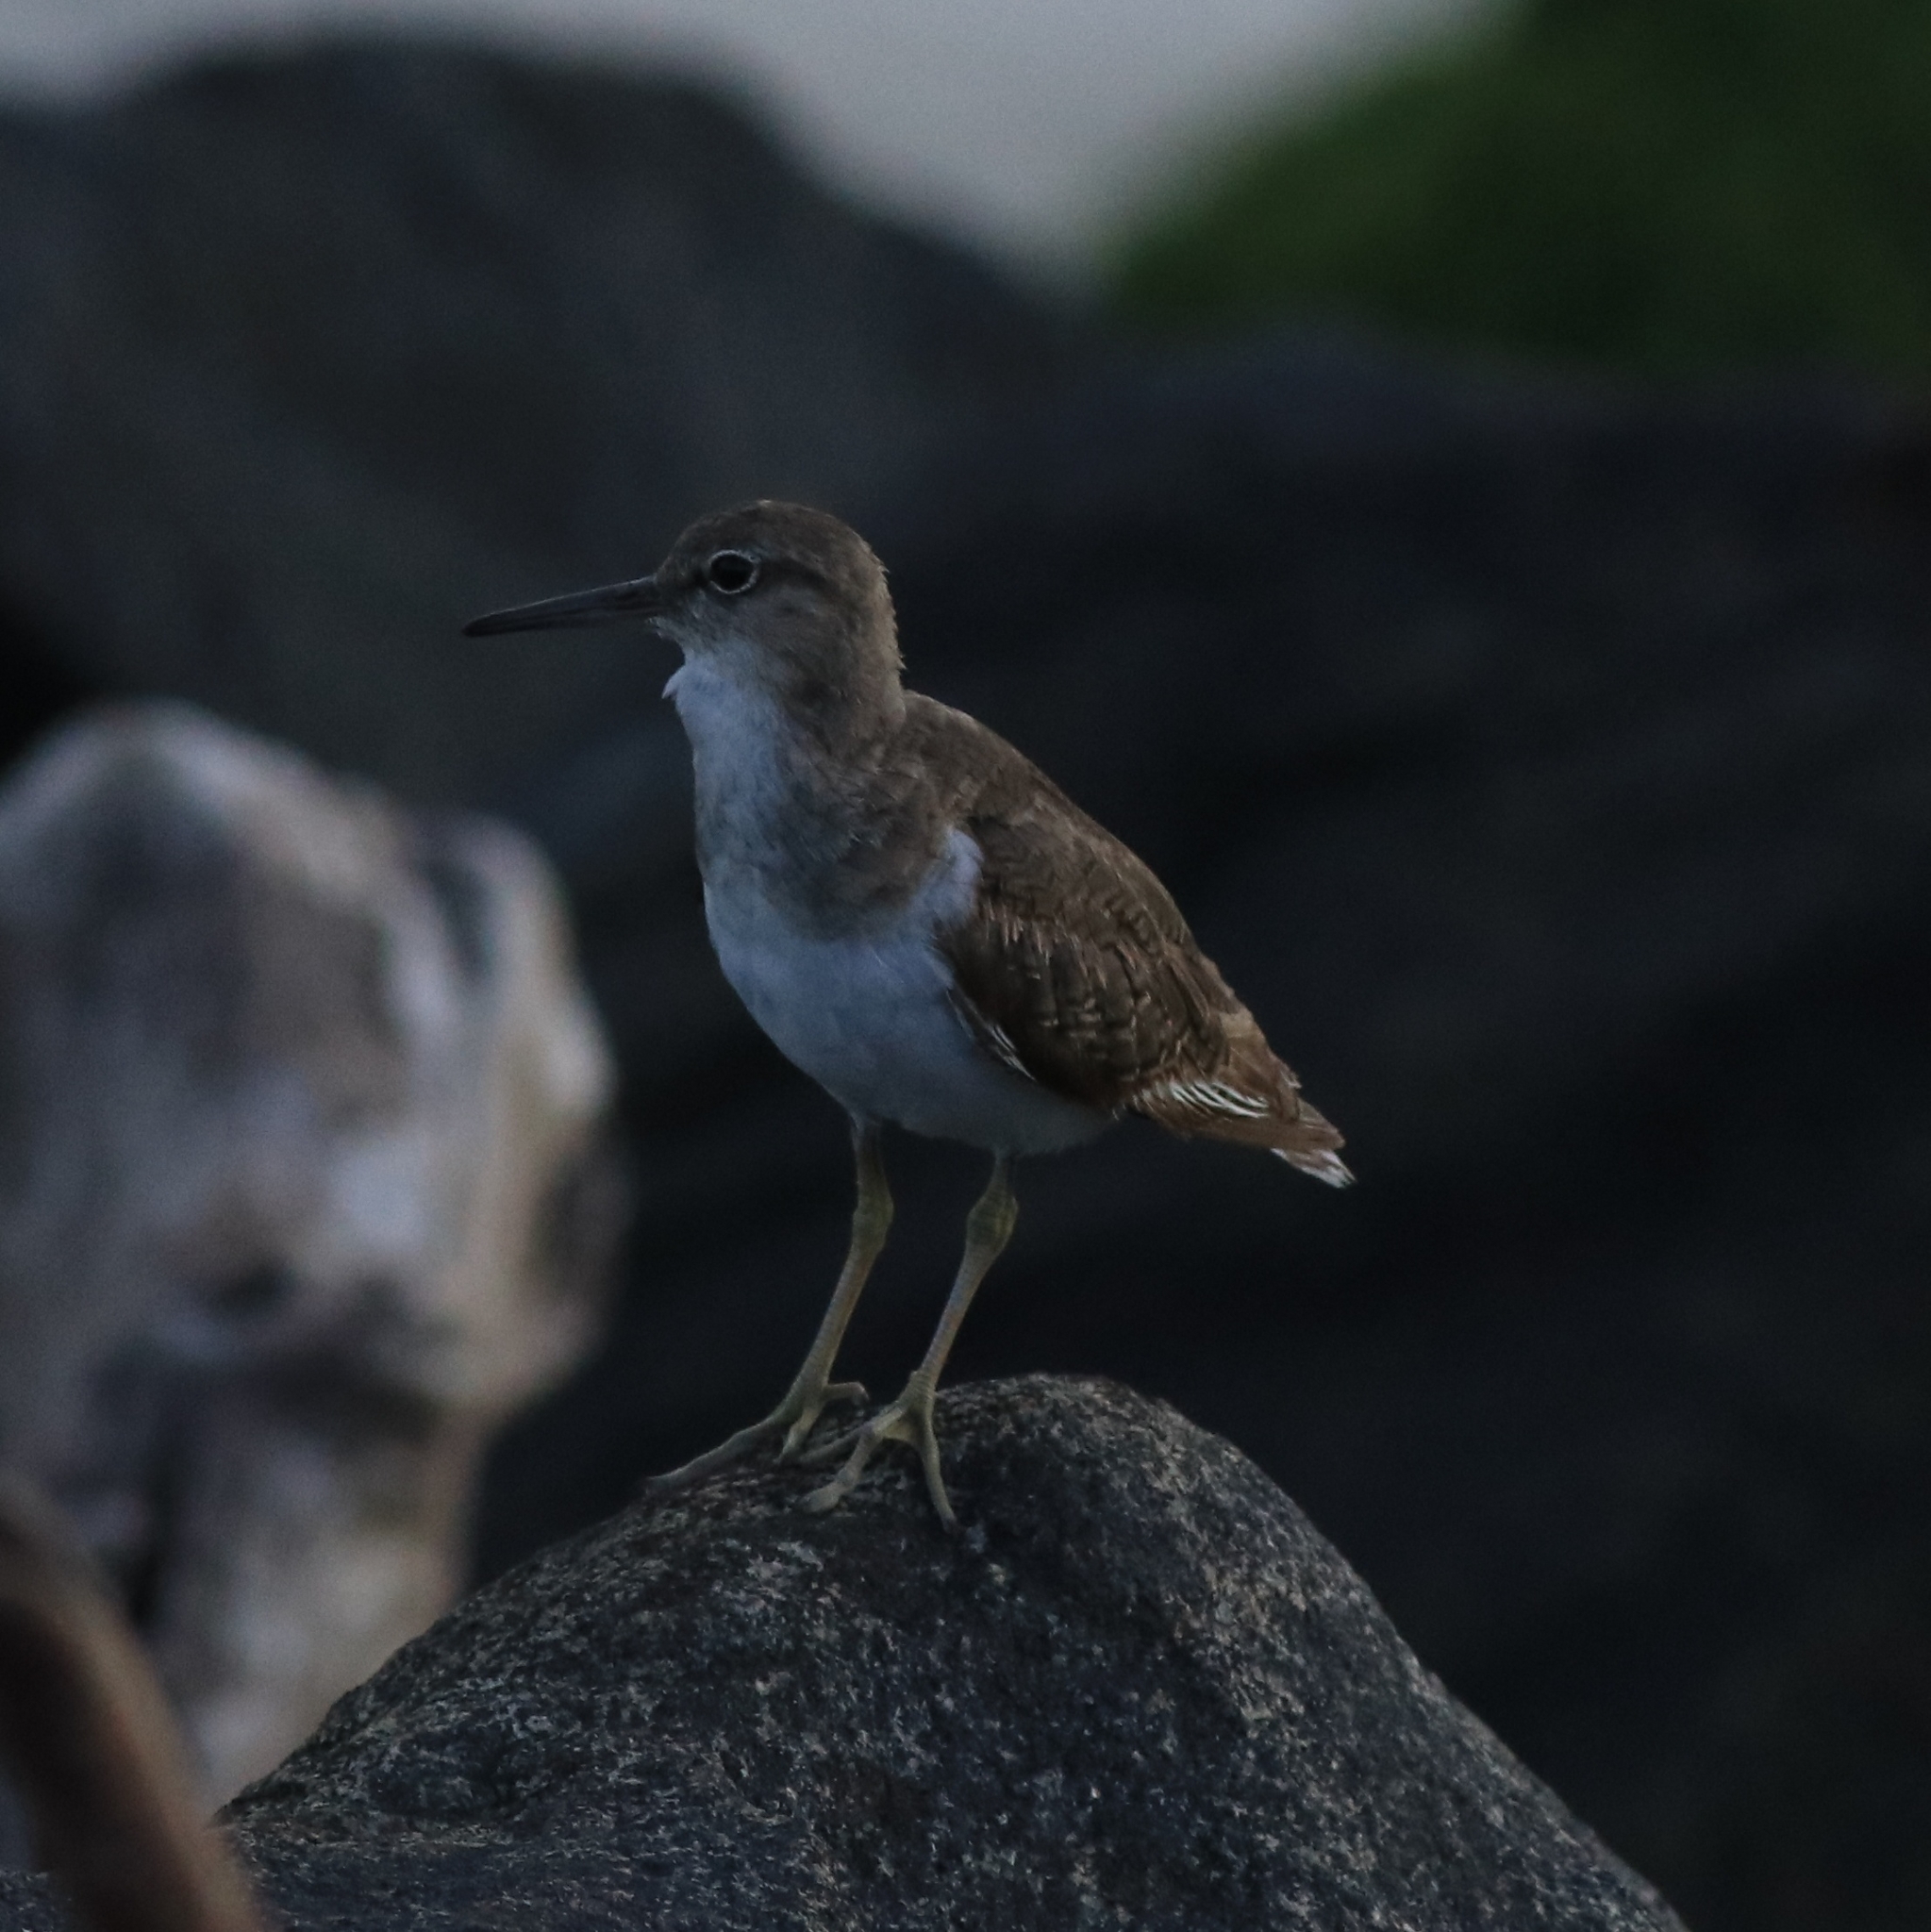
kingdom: Animalia
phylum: Chordata
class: Aves
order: Charadriiformes
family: Scolopacidae
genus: Actitis
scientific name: Actitis hypoleucos
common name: Common sandpiper
